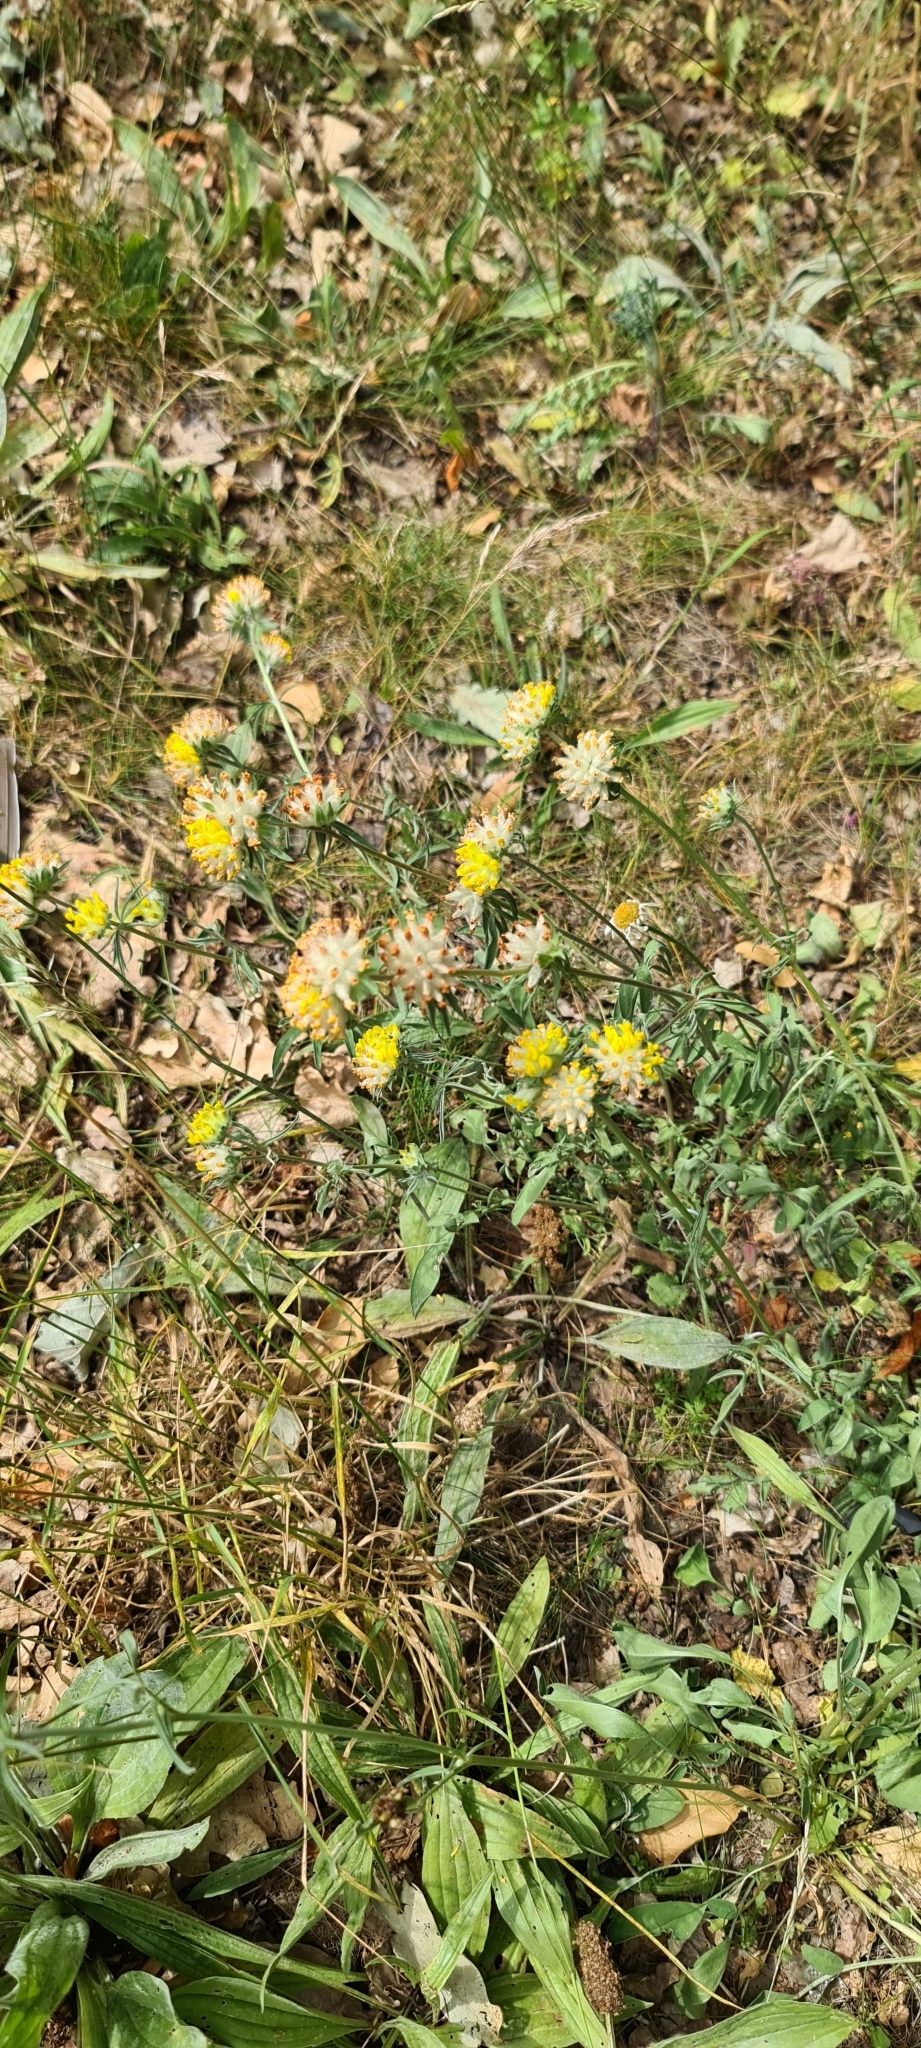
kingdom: Plantae
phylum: Tracheophyta
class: Magnoliopsida
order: Fabales
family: Fabaceae
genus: Anthyllis
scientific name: Anthyllis vulneraria
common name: Kidney vetch
